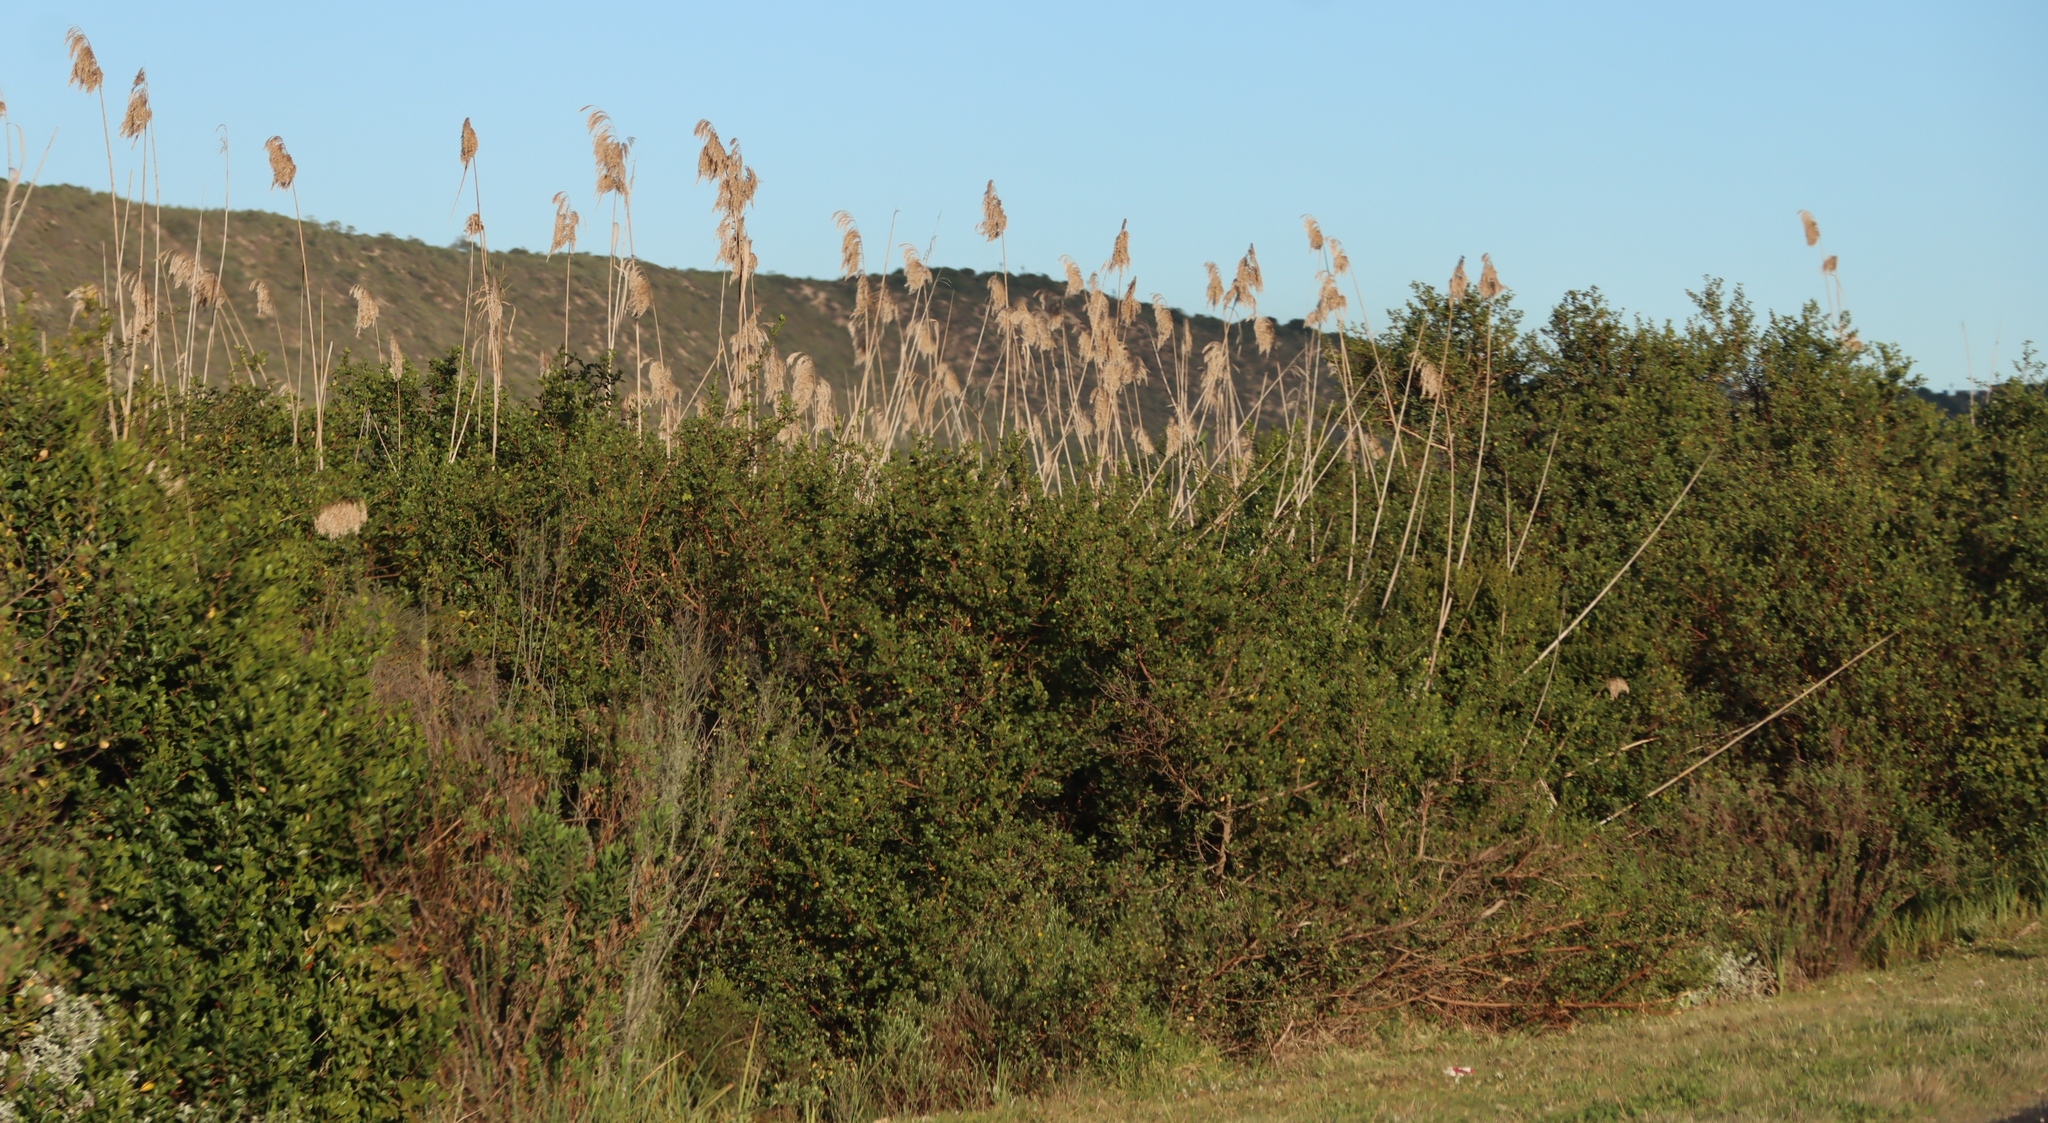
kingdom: Plantae
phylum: Tracheophyta
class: Liliopsida
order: Poales
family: Poaceae
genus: Phragmites
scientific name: Phragmites australis
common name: Common reed
